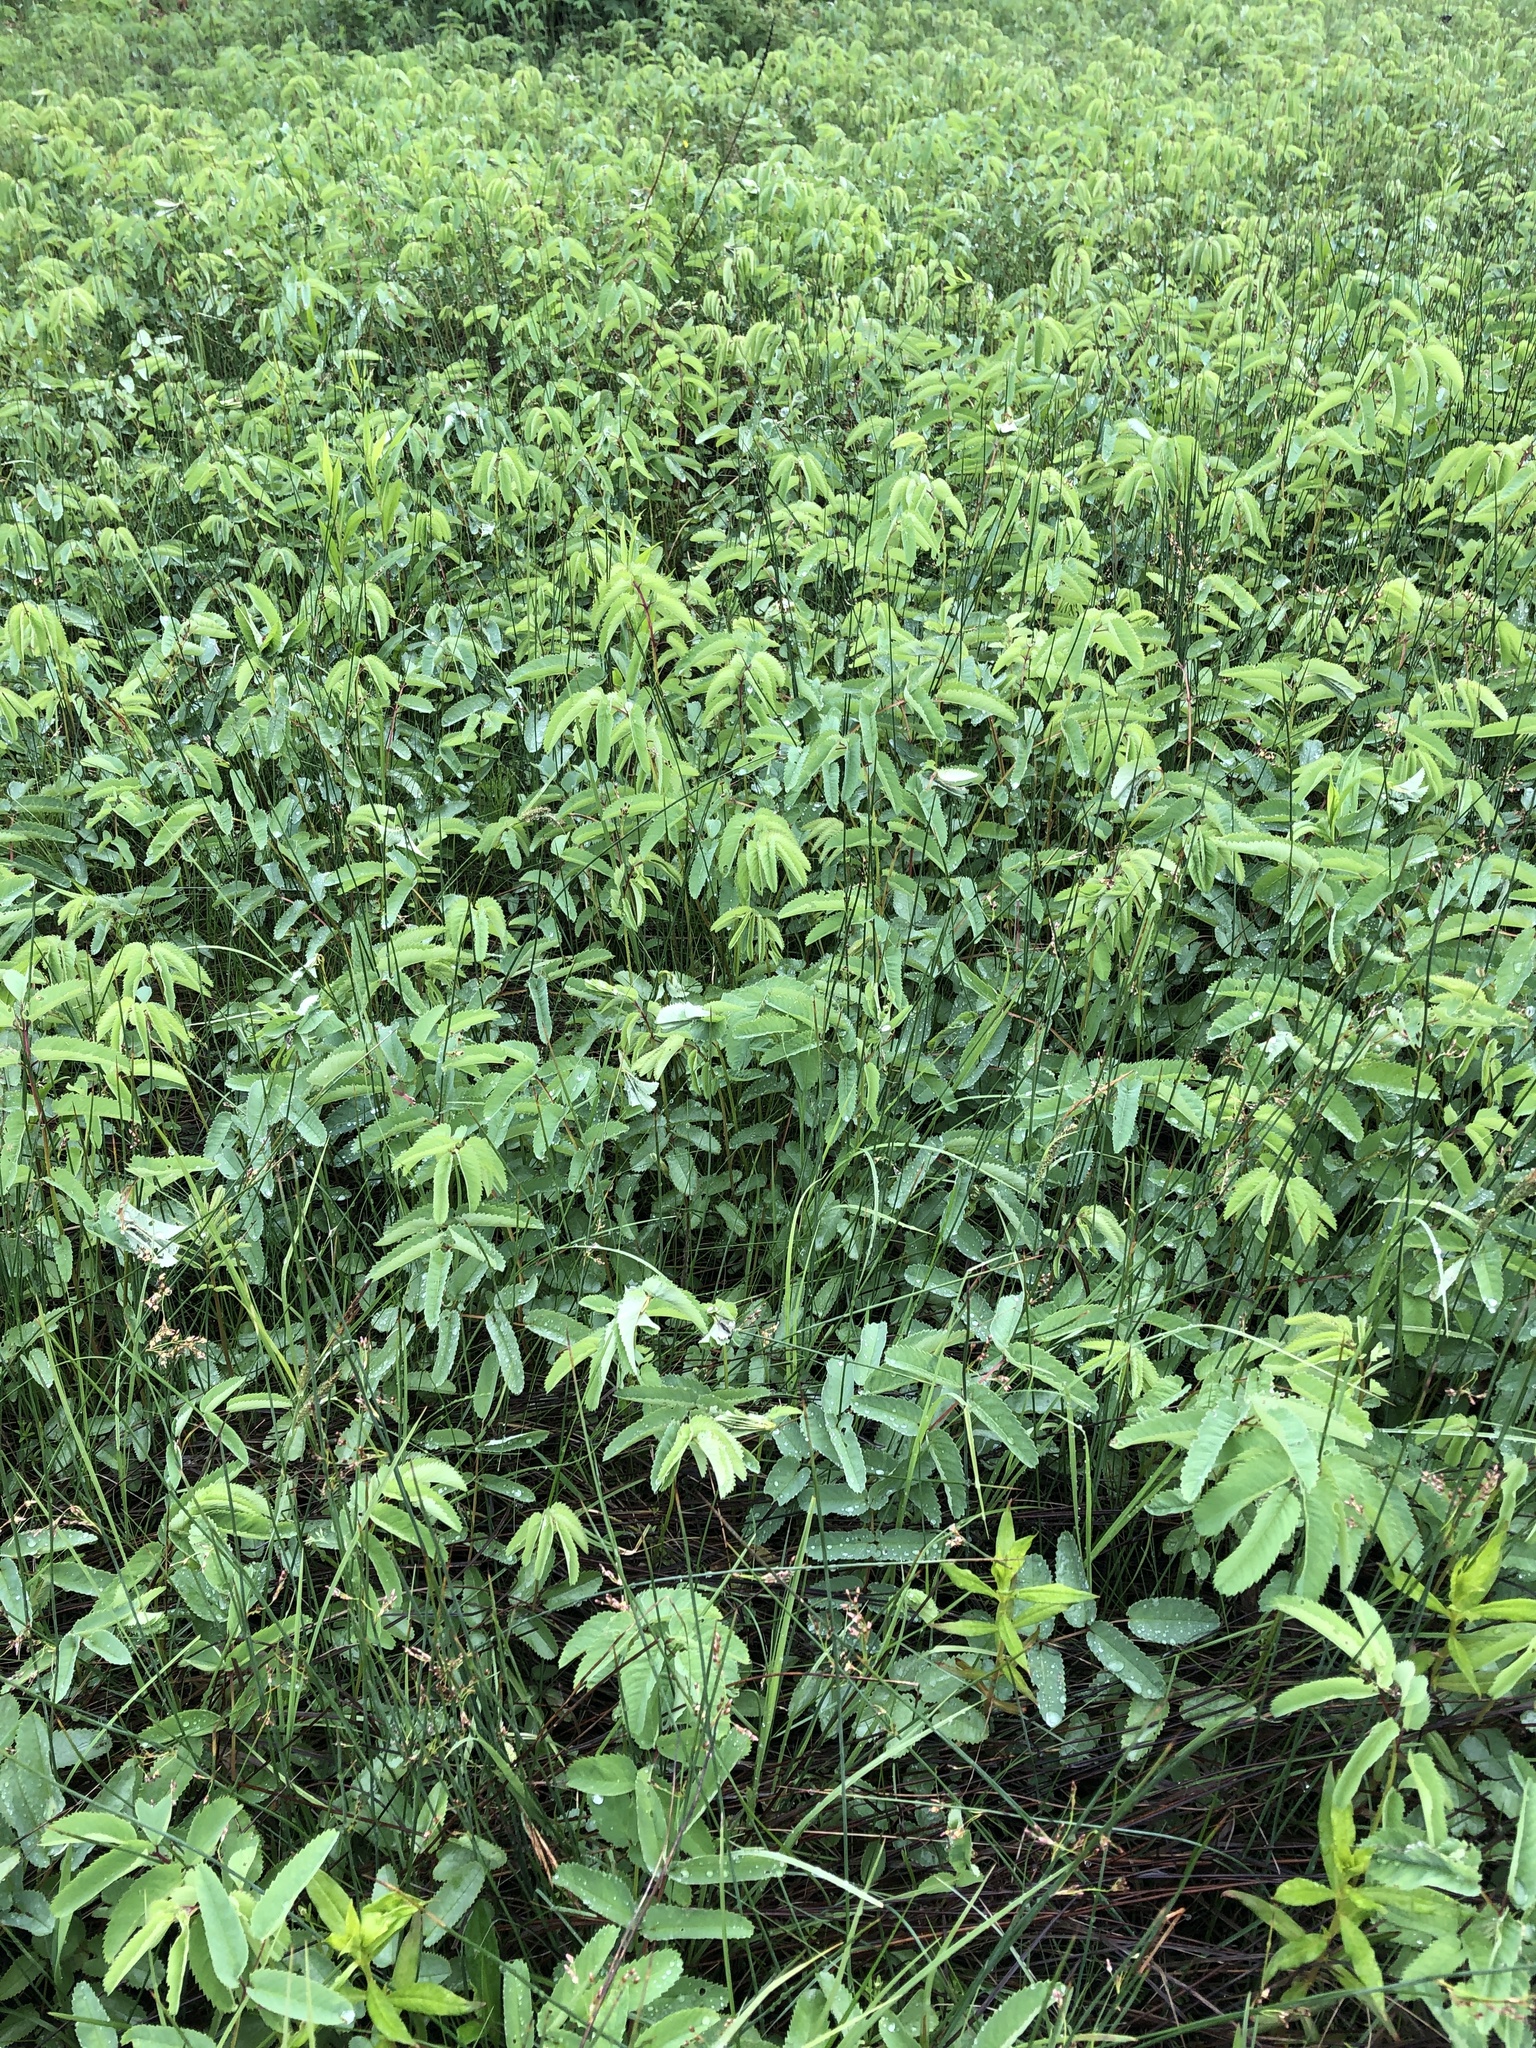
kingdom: Plantae
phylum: Tracheophyta
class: Magnoliopsida
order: Rosales
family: Rosaceae
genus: Sanguisorba
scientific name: Sanguisorba canadensis
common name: White burnet
